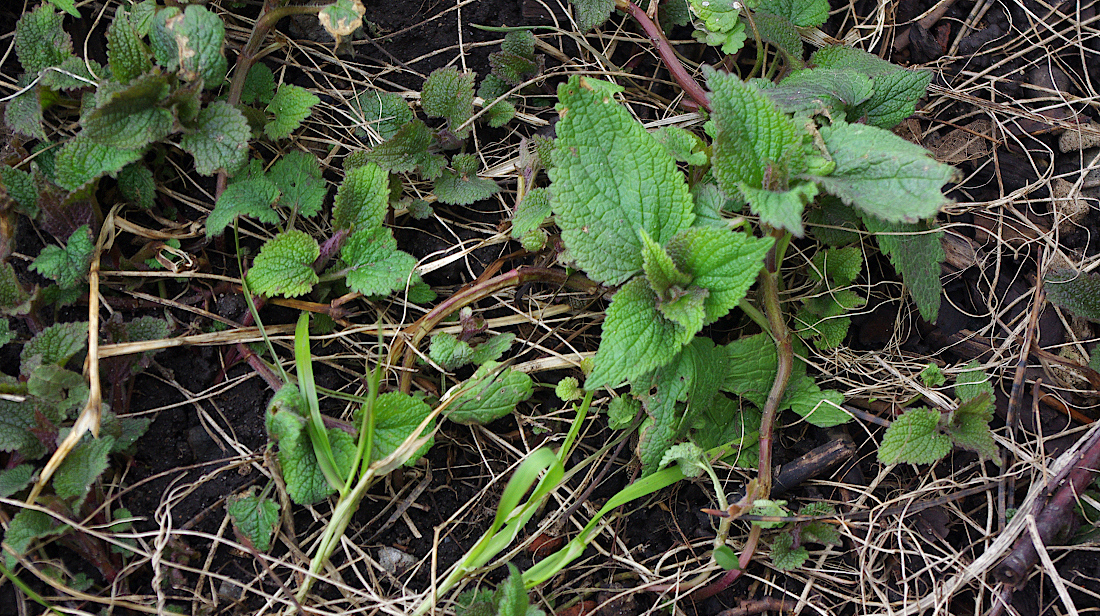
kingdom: Plantae
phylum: Tracheophyta
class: Magnoliopsida
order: Lamiales
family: Lamiaceae
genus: Lamium
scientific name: Lamium album
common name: White dead-nettle
